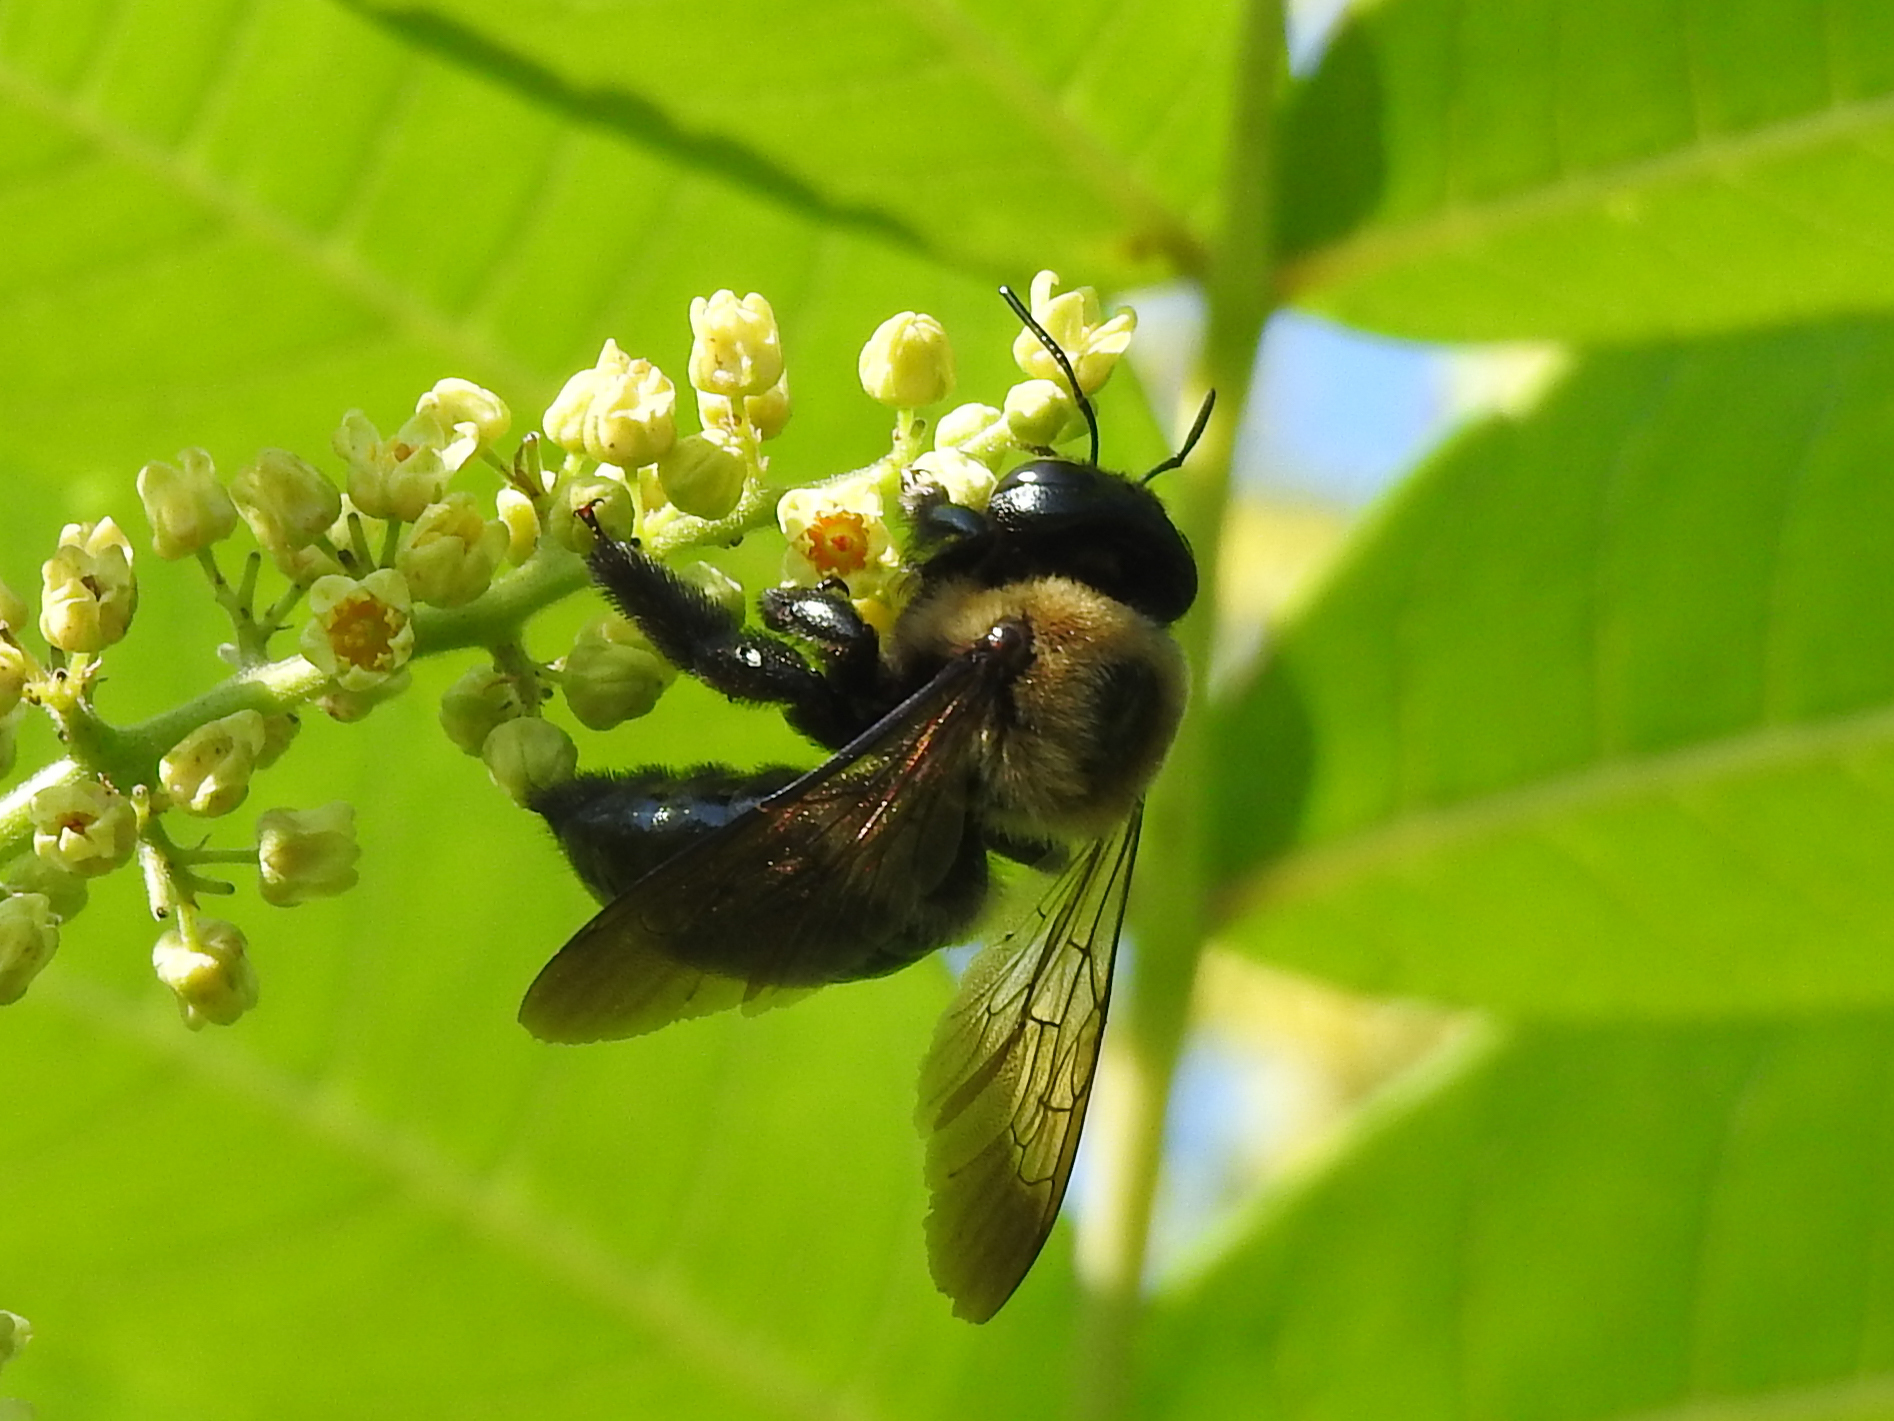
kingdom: Animalia
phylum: Arthropoda
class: Insecta
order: Hymenoptera
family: Apidae
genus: Xylocopa
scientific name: Xylocopa virginica
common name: Carpenter bee
